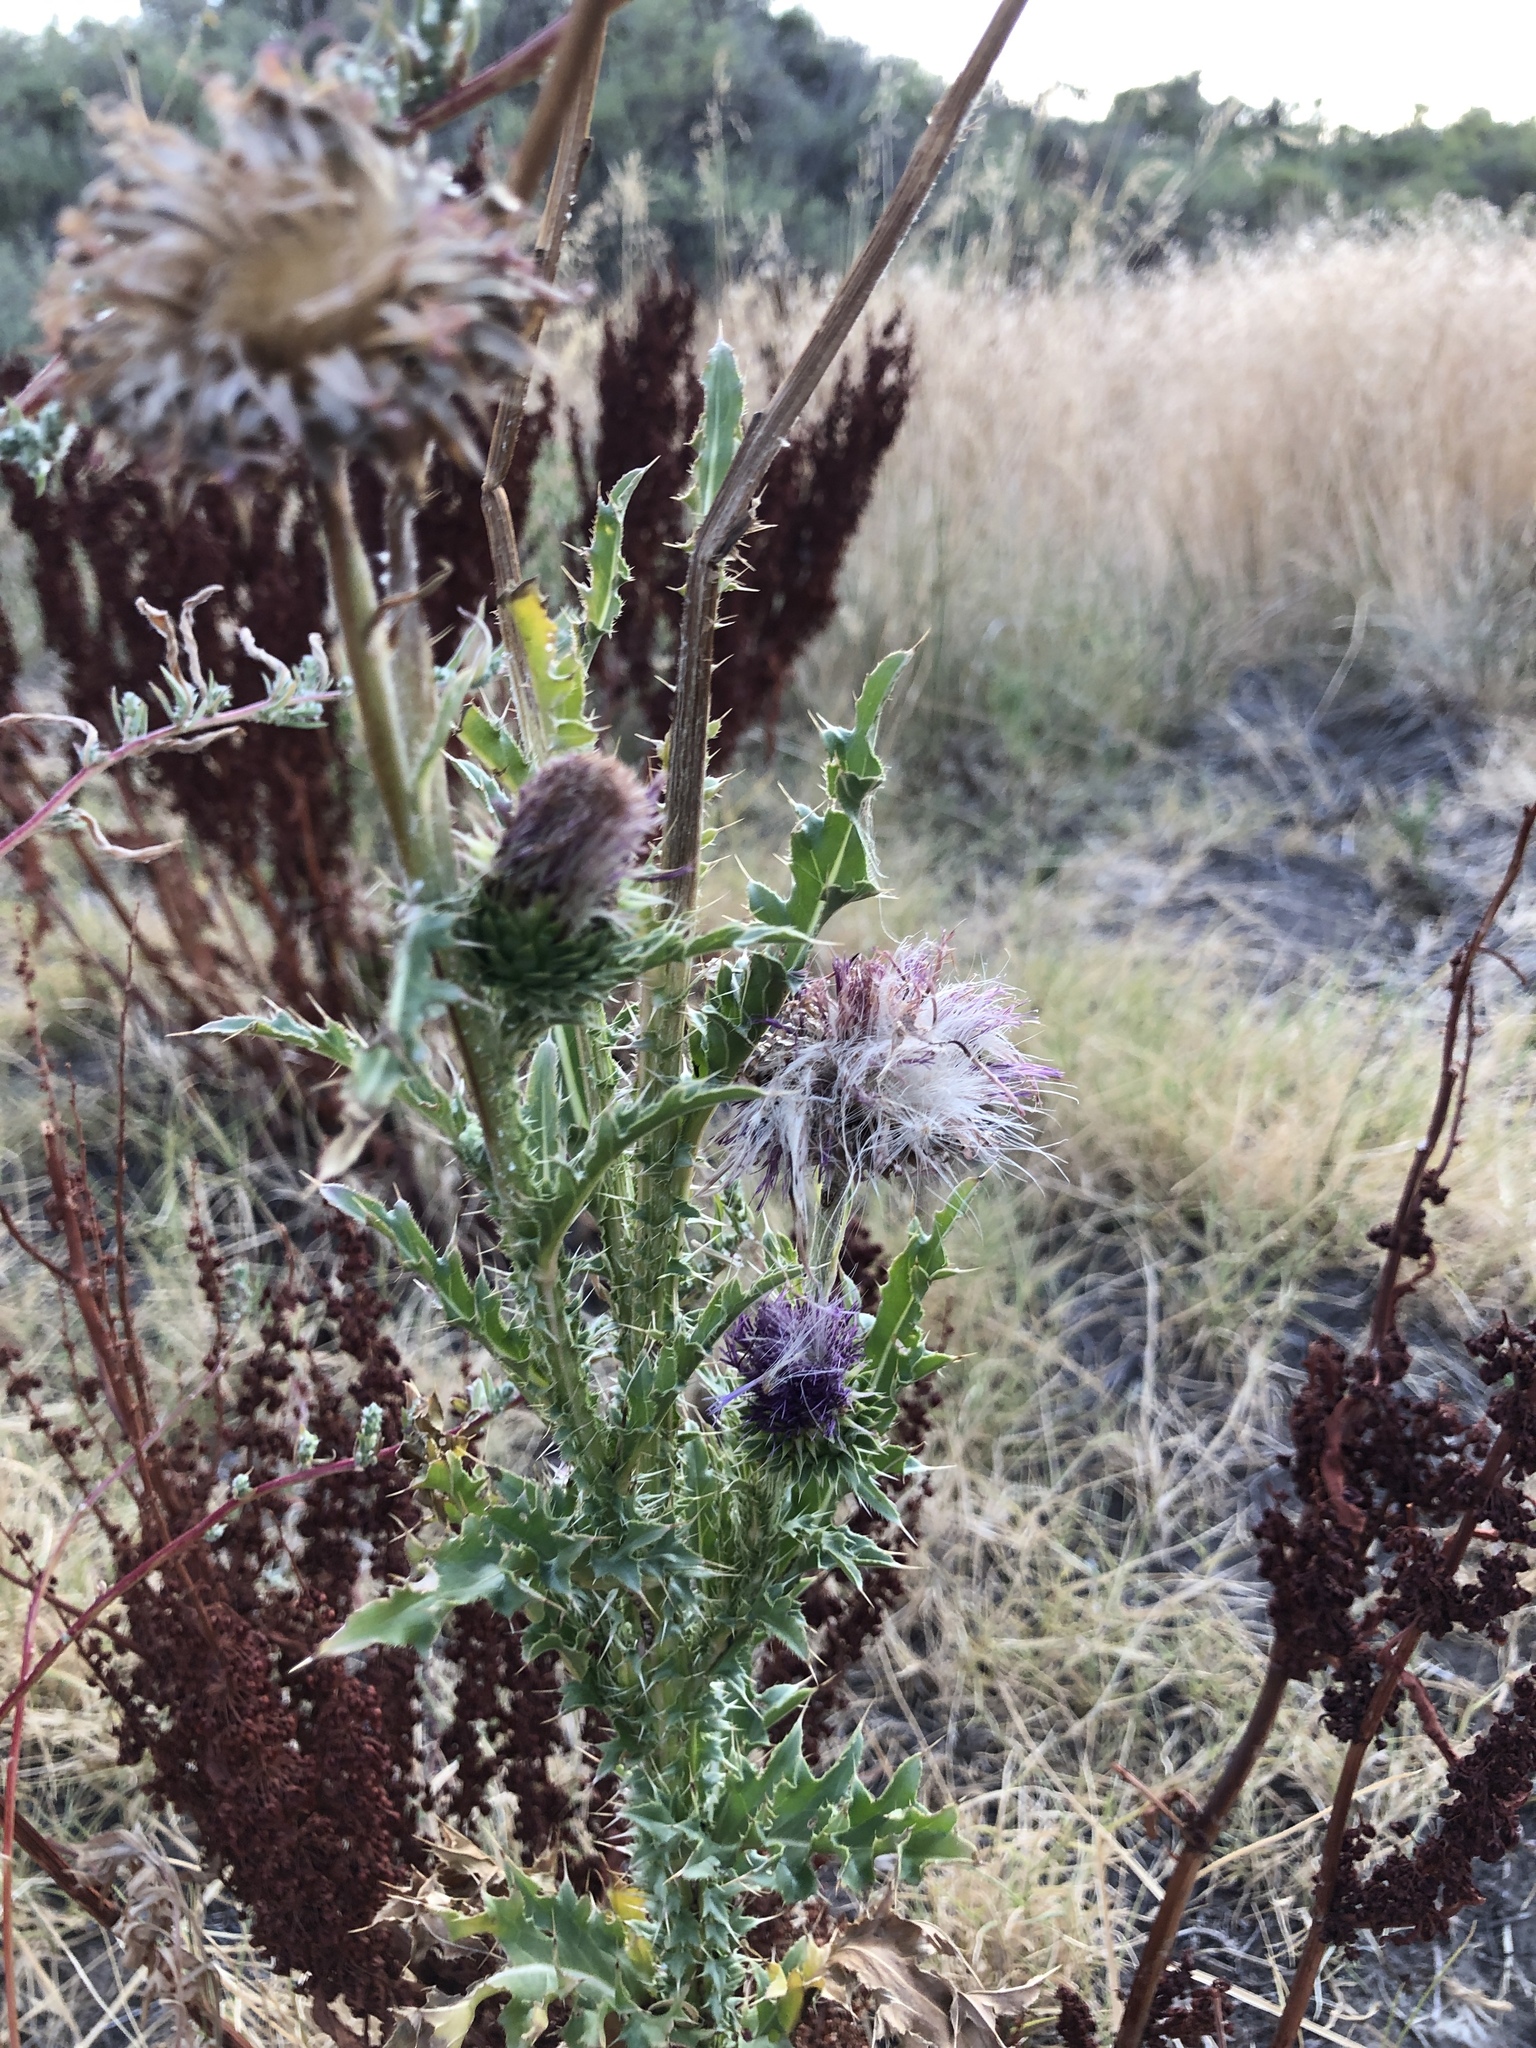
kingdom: Plantae
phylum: Tracheophyta
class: Magnoliopsida
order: Asterales
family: Asteraceae
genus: Carduus
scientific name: Carduus nutans
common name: Musk thistle
